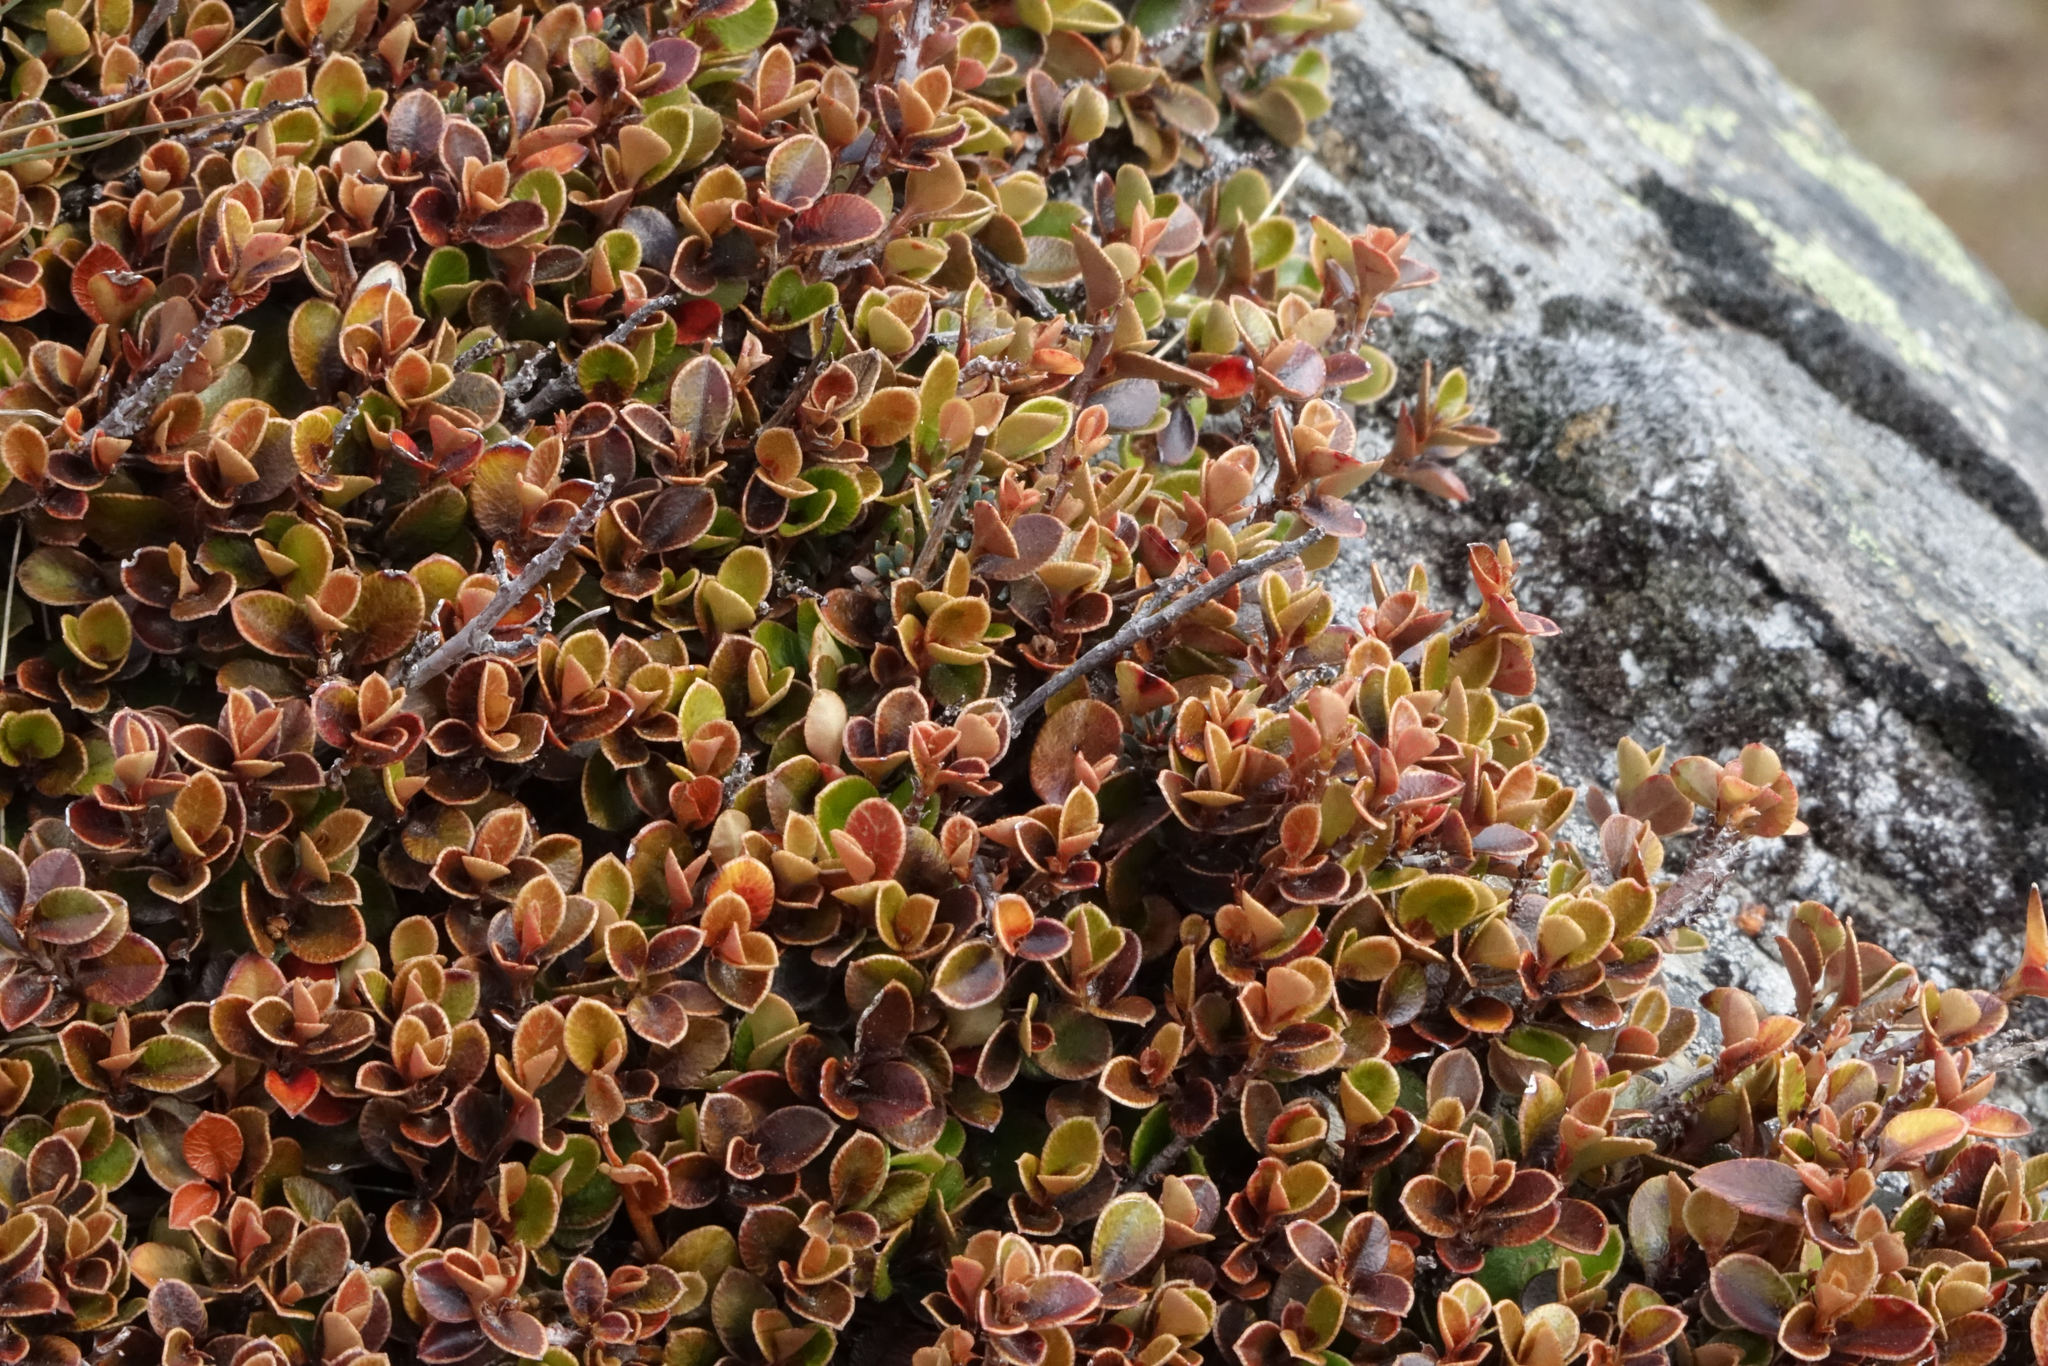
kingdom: Plantae
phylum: Tracheophyta
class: Magnoliopsida
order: Ericales
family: Primulaceae
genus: Myrsine
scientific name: Myrsine nummularia
